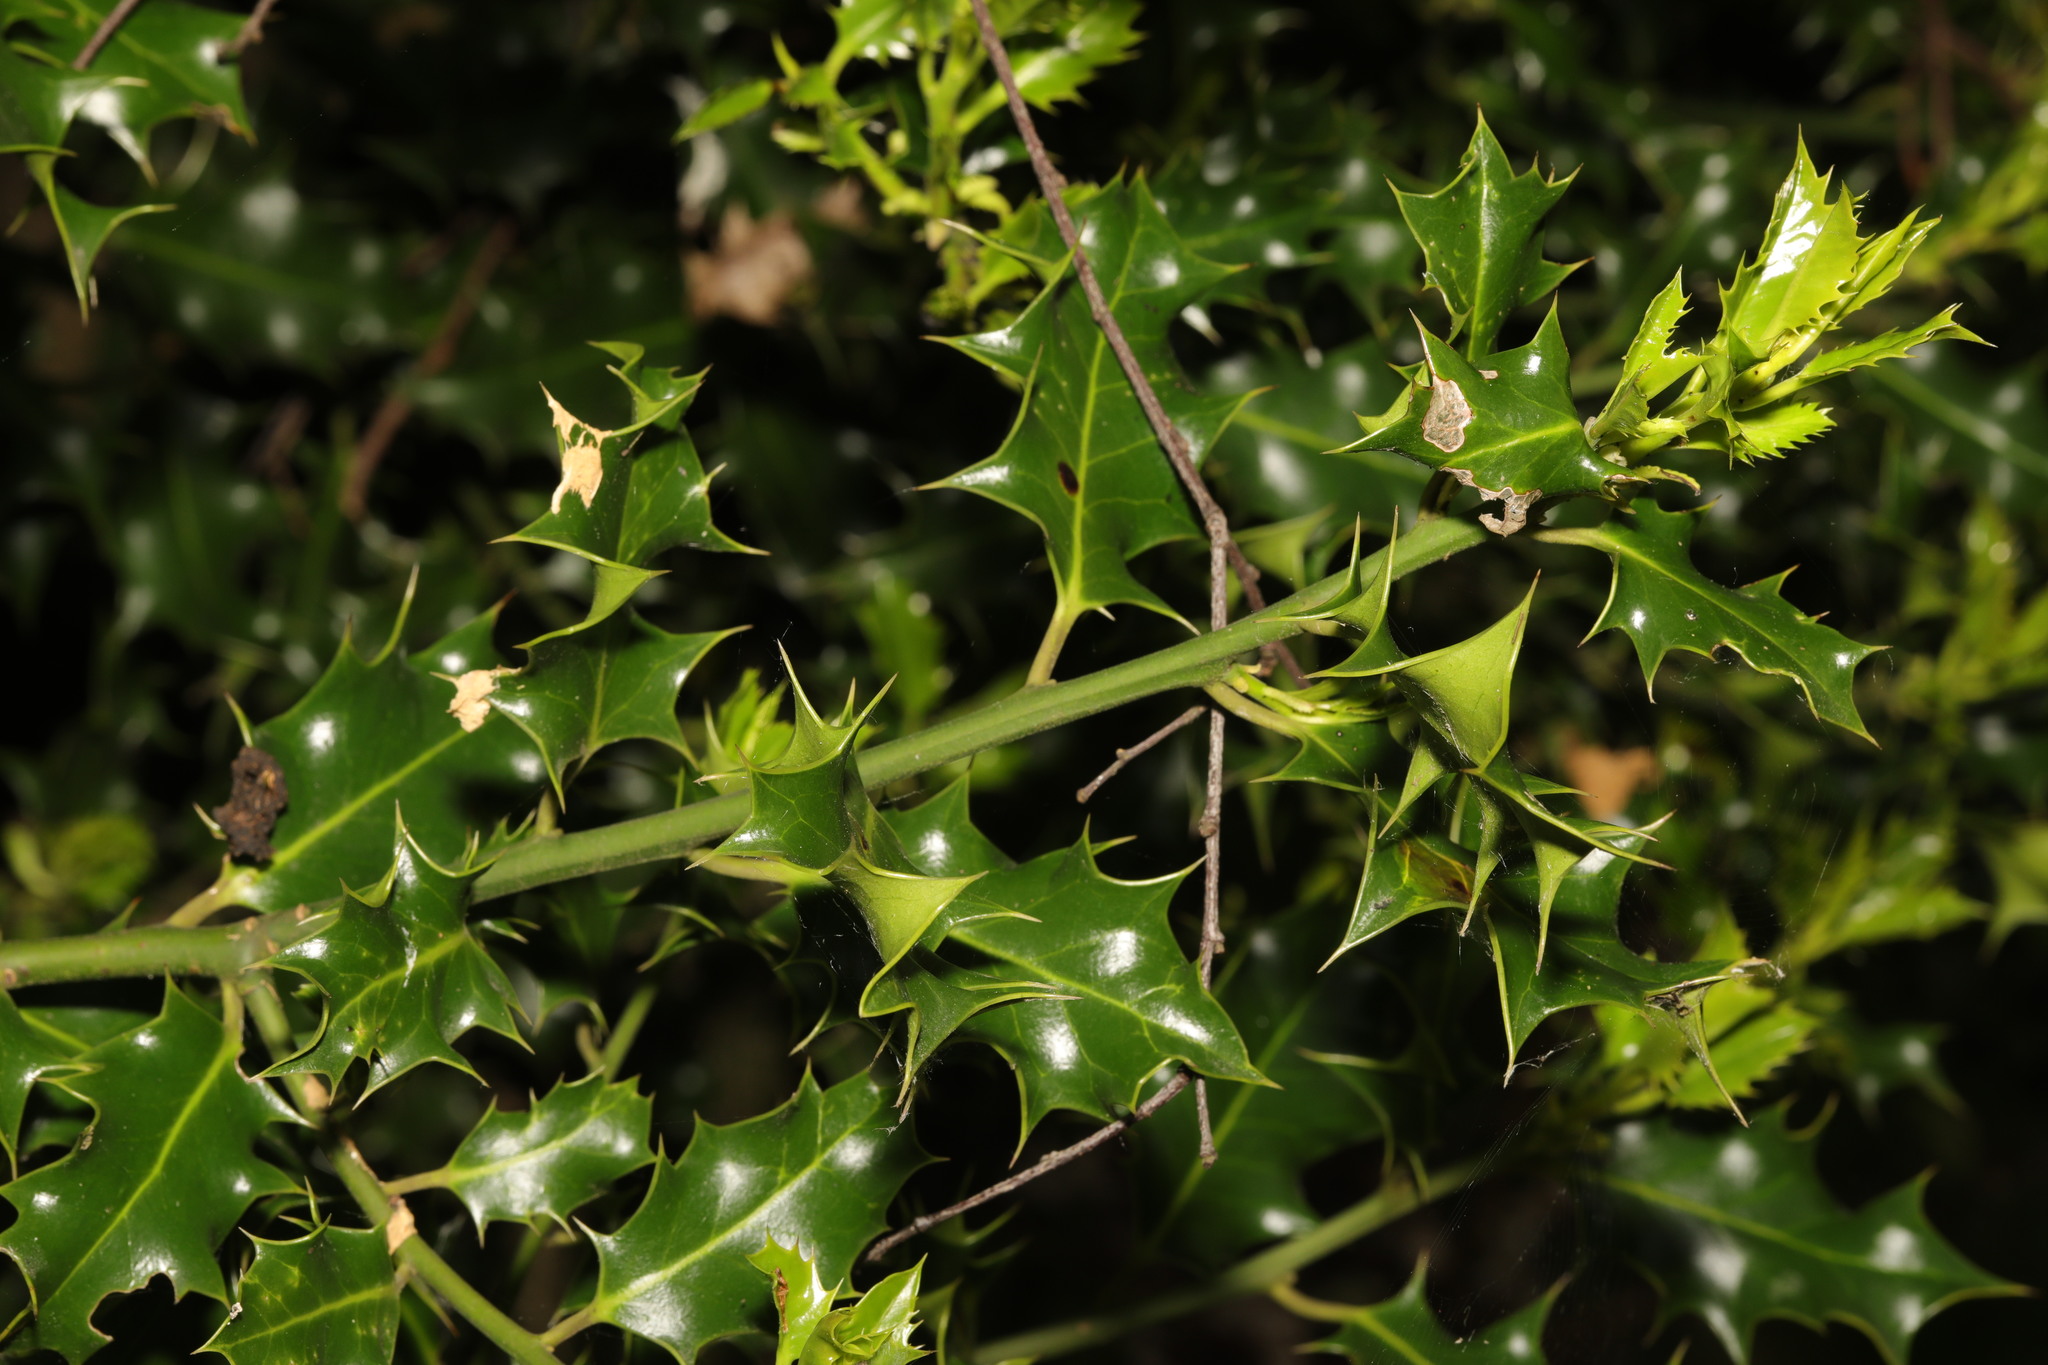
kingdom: Plantae
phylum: Tracheophyta
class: Magnoliopsida
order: Aquifoliales
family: Aquifoliaceae
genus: Ilex
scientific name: Ilex aquifolium
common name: English holly
